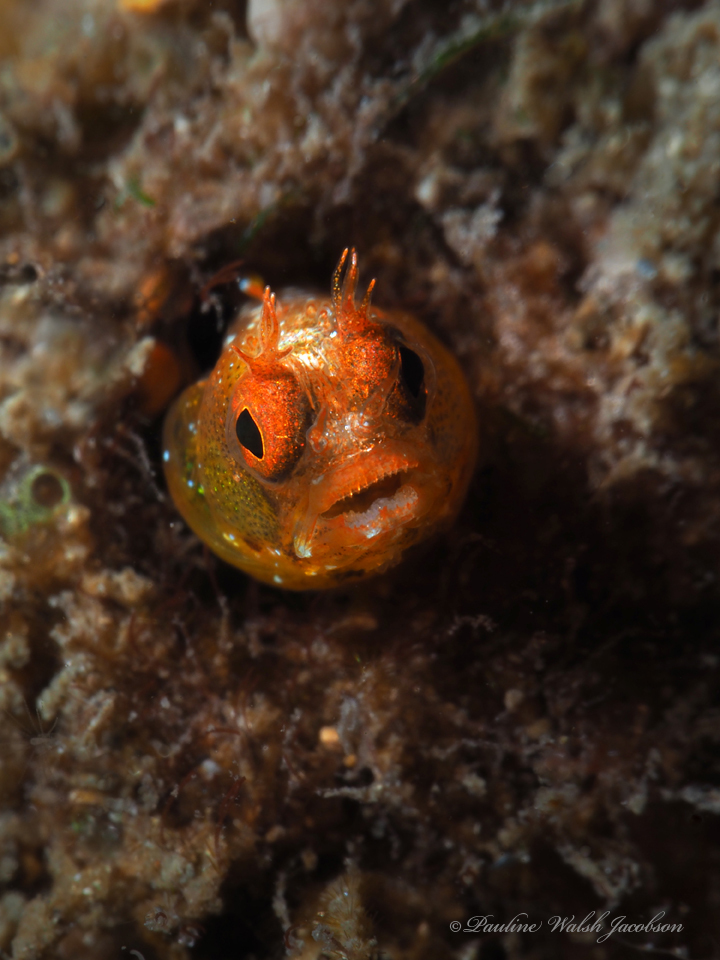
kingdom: Animalia
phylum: Chordata
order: Perciformes
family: Chaenopsidae
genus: Acanthemblemaria
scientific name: Acanthemblemaria aspera
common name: Roughhead blenny
